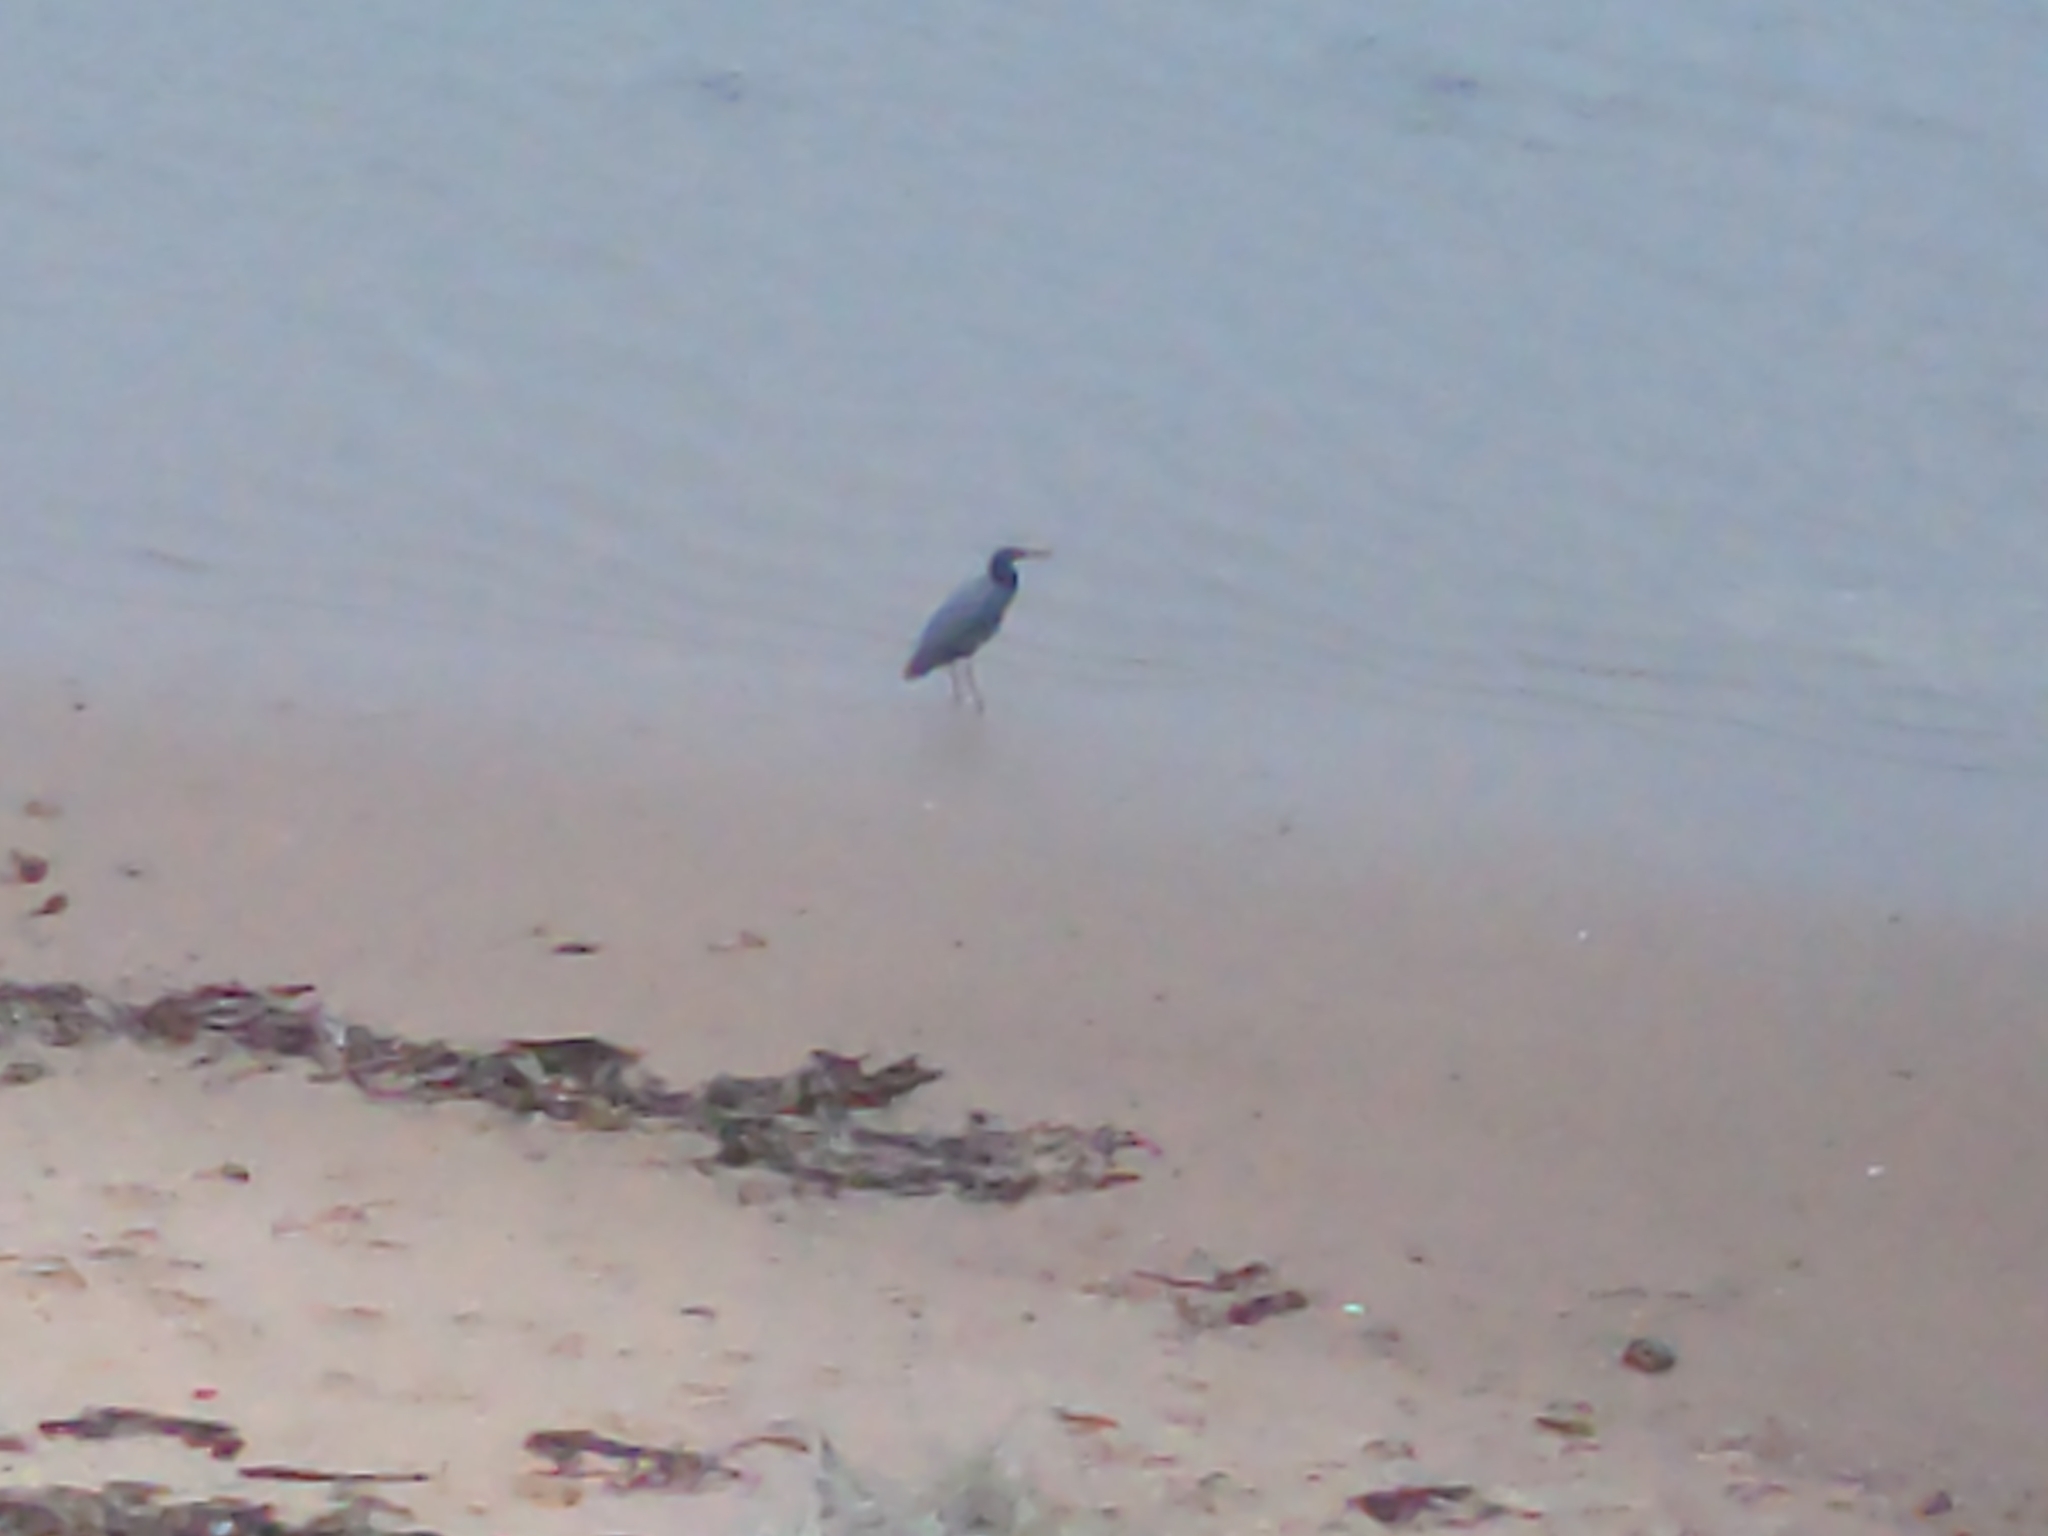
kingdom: Animalia
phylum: Chordata
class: Aves
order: Pelecaniformes
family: Ardeidae
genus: Egretta
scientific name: Egretta sacra
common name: Pacific reef heron
